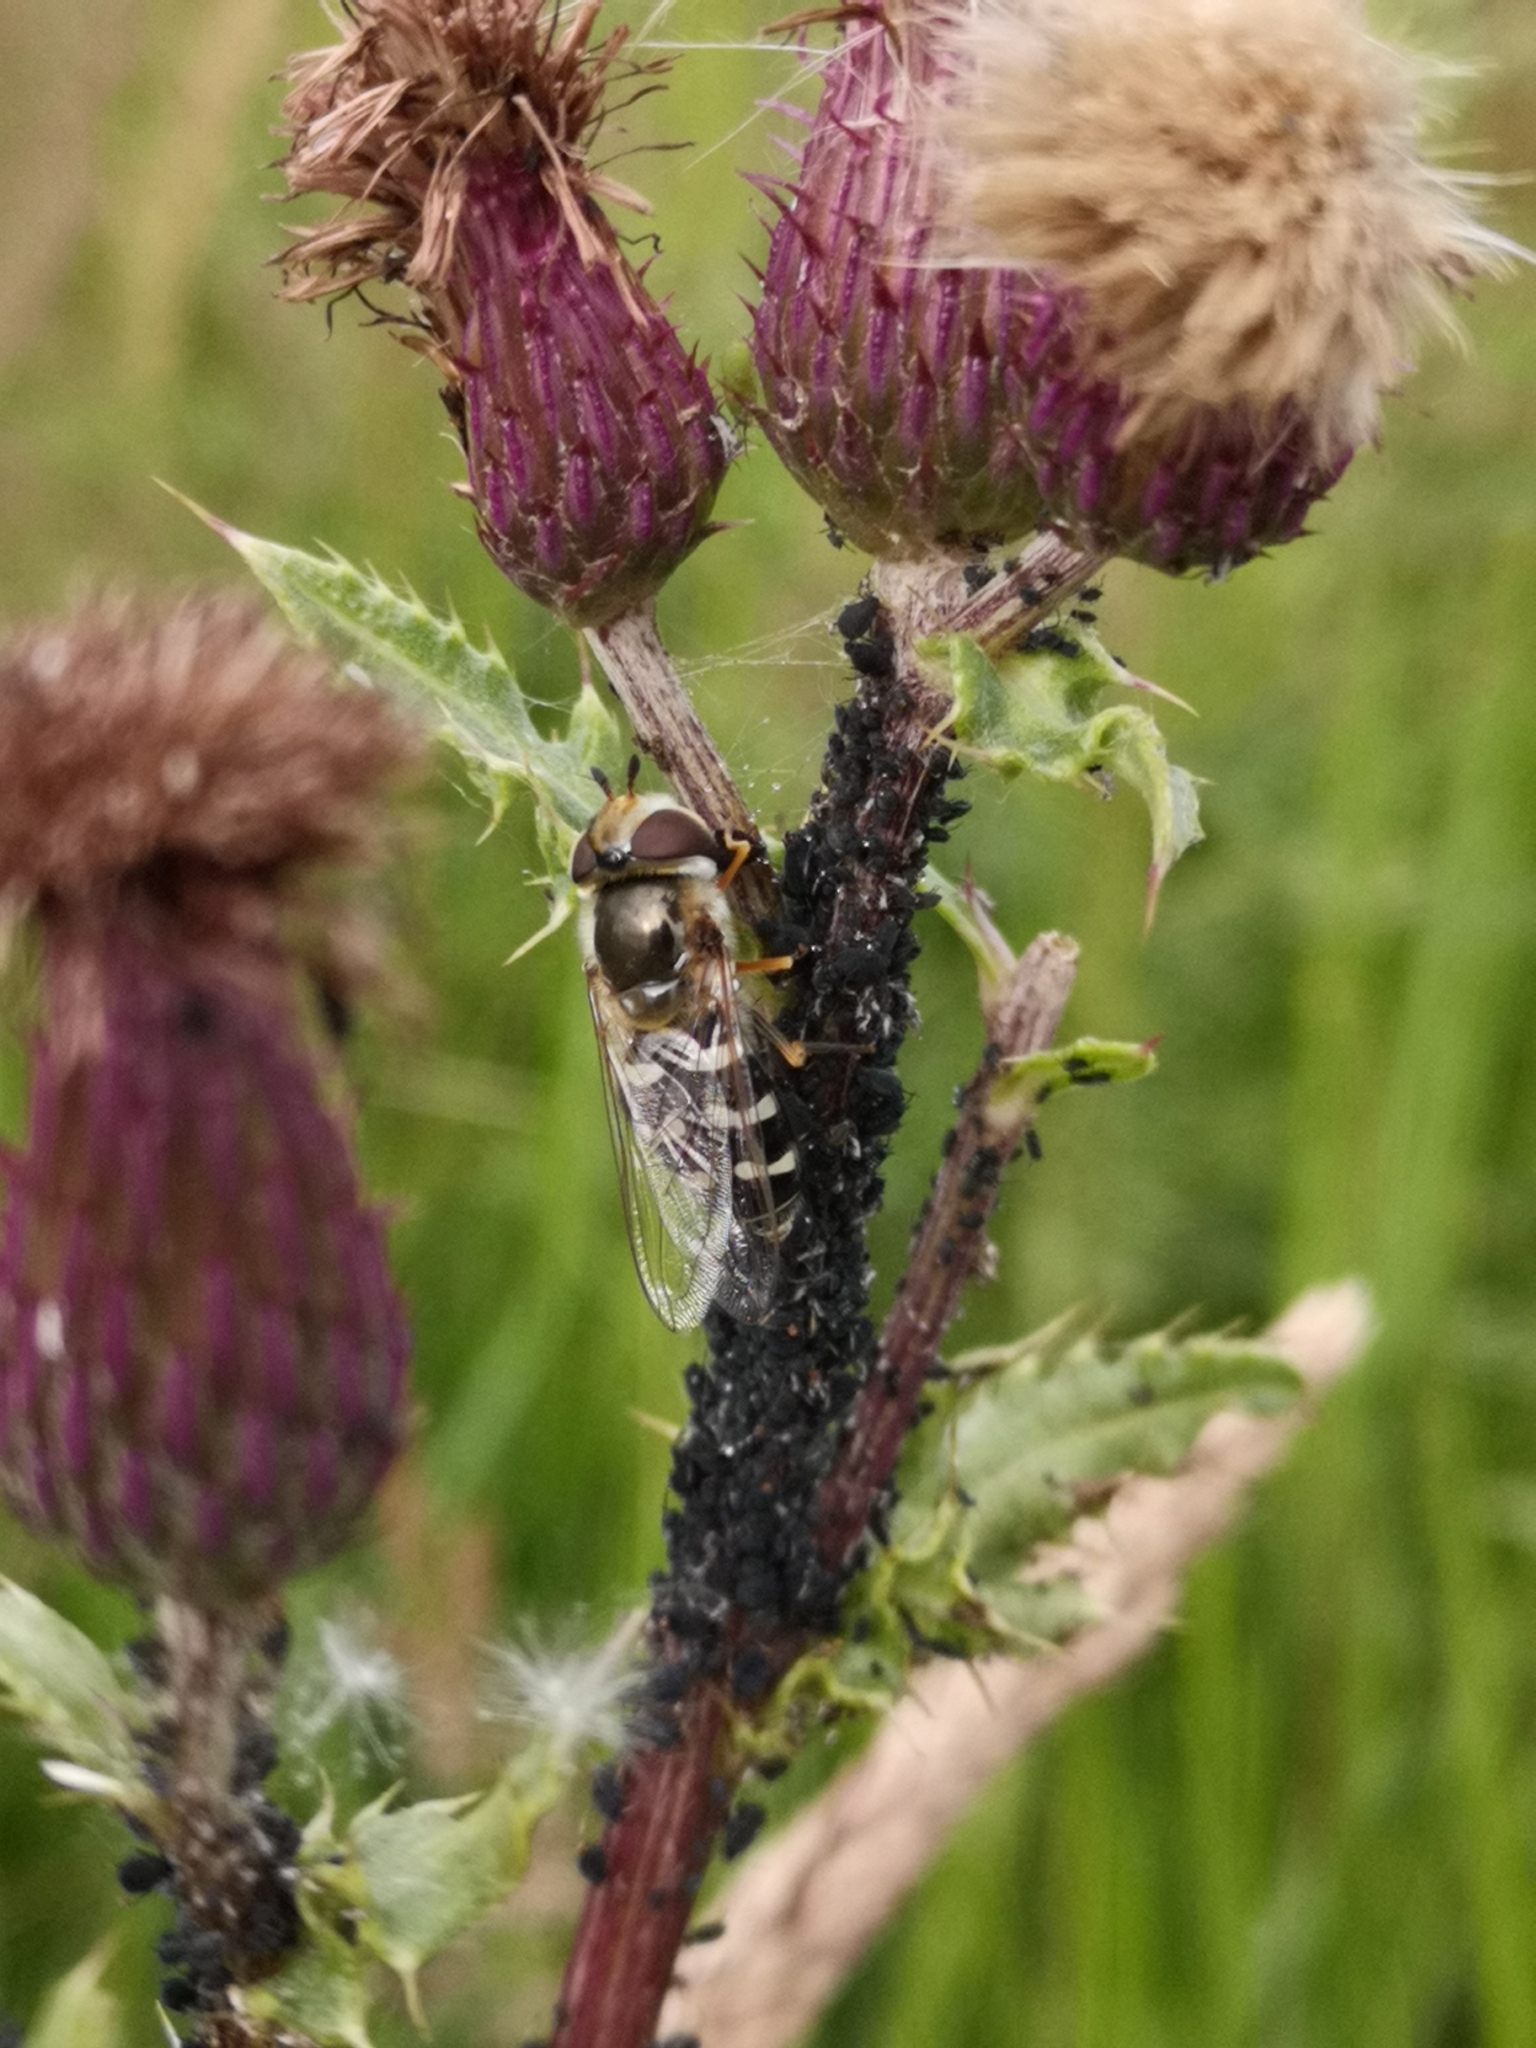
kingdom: Animalia
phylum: Arthropoda
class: Insecta
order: Diptera
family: Syrphidae
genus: Scaeva
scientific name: Scaeva pyrastri
